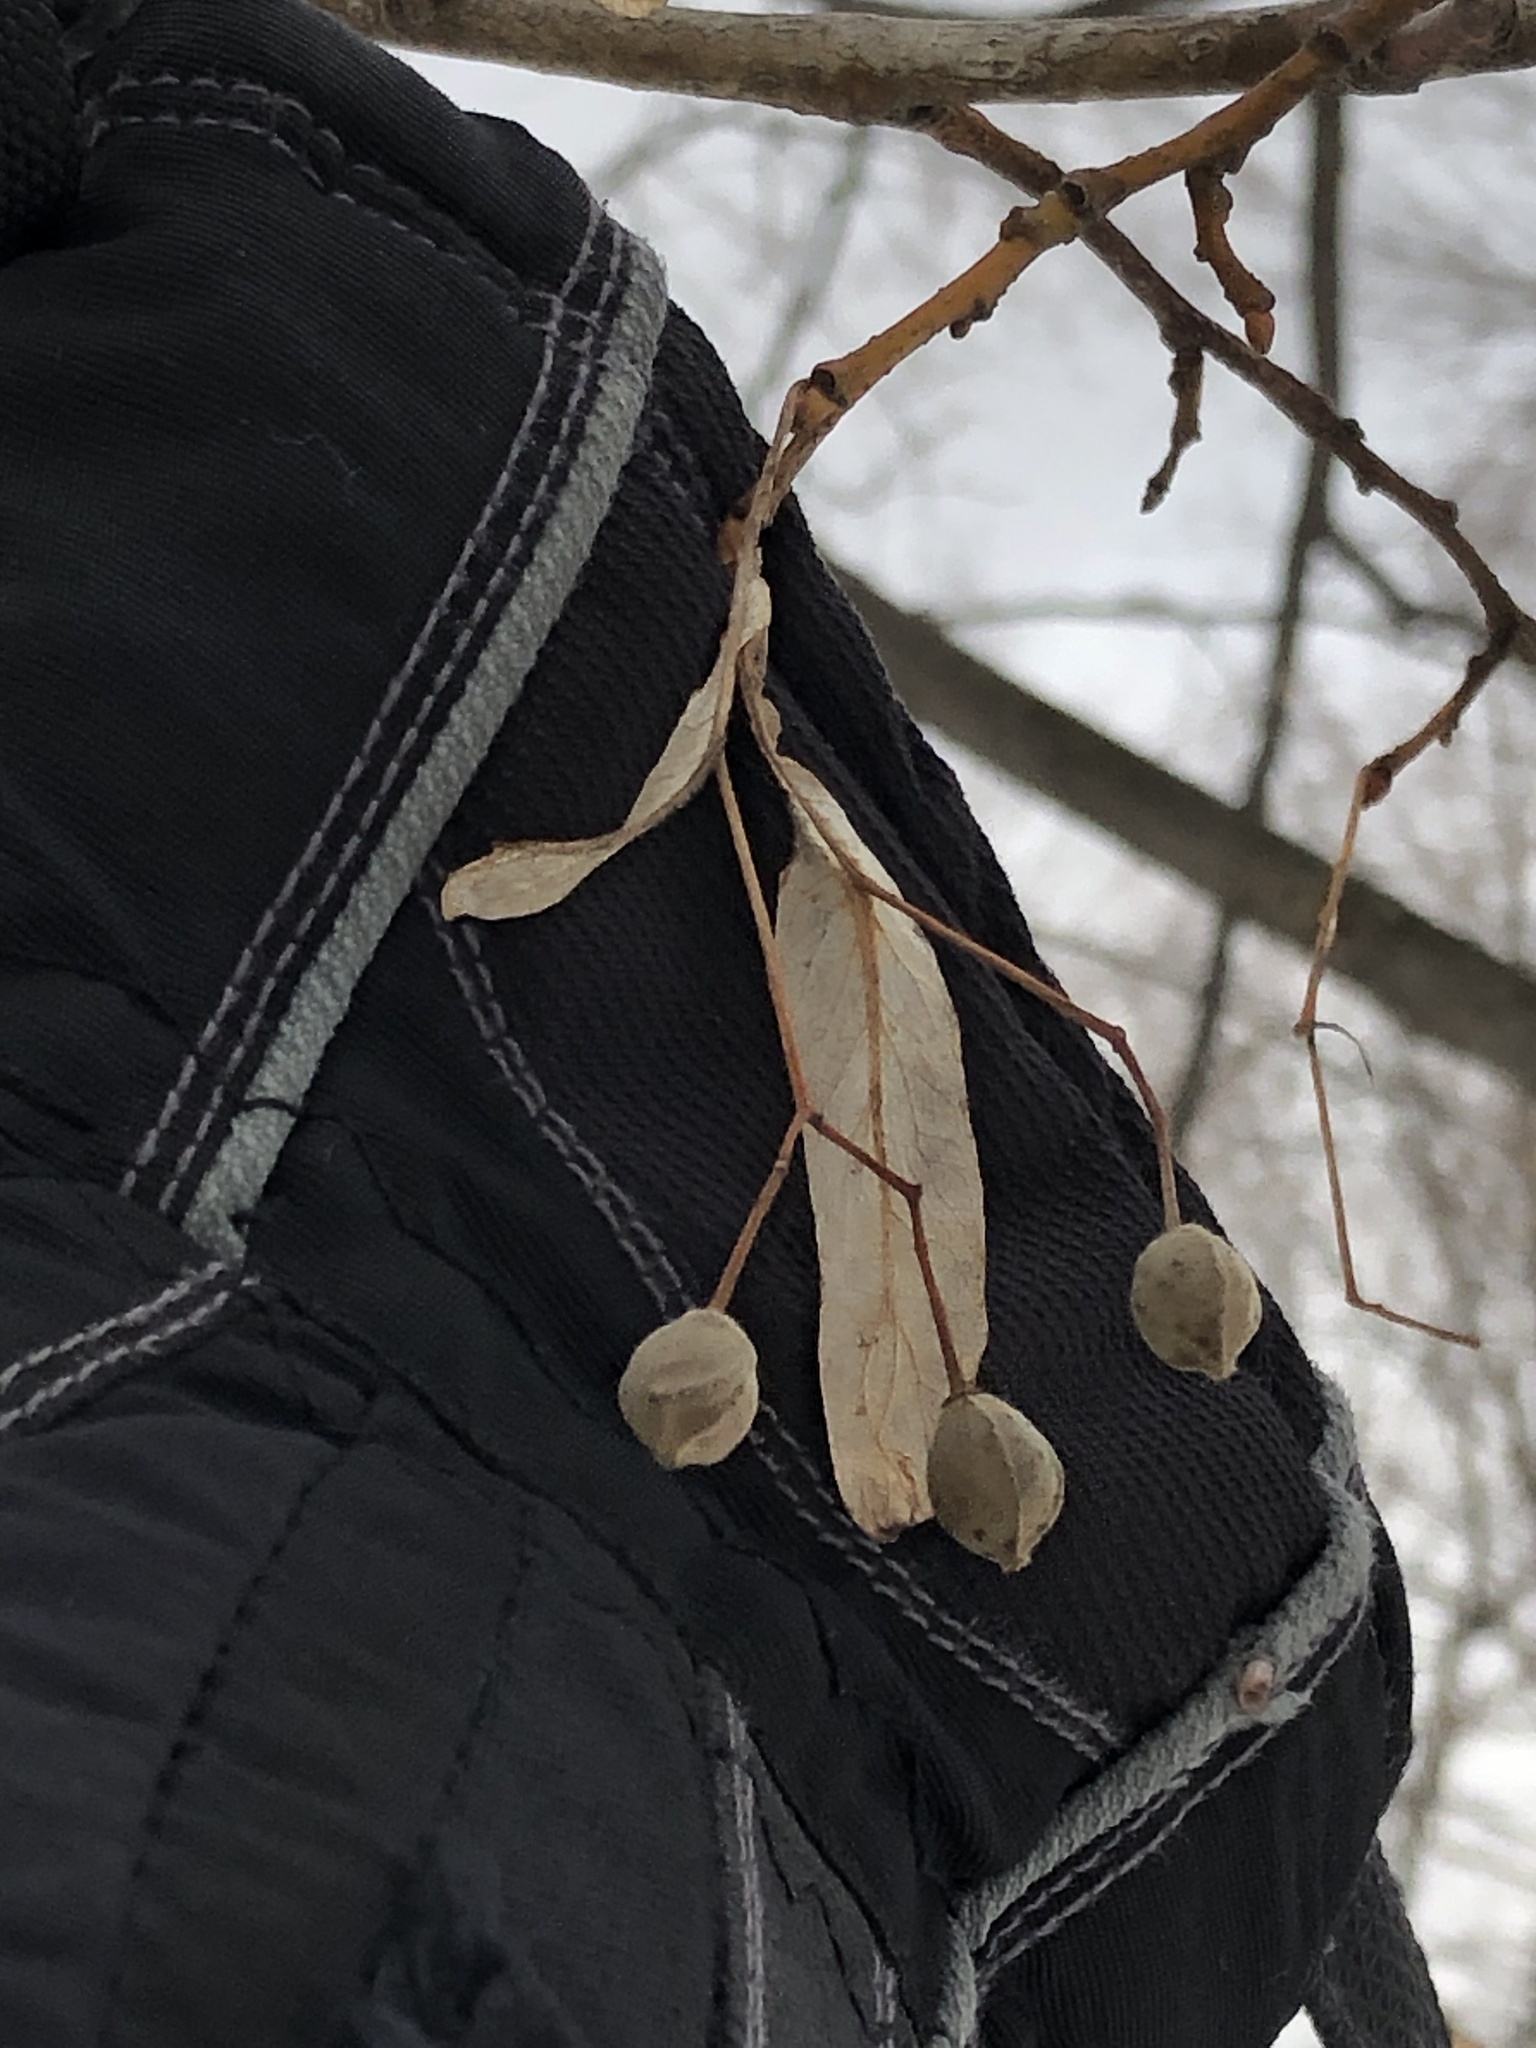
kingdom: Plantae
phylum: Tracheophyta
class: Magnoliopsida
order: Malvales
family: Malvaceae
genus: Tilia
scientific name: Tilia americana
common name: Basswood
